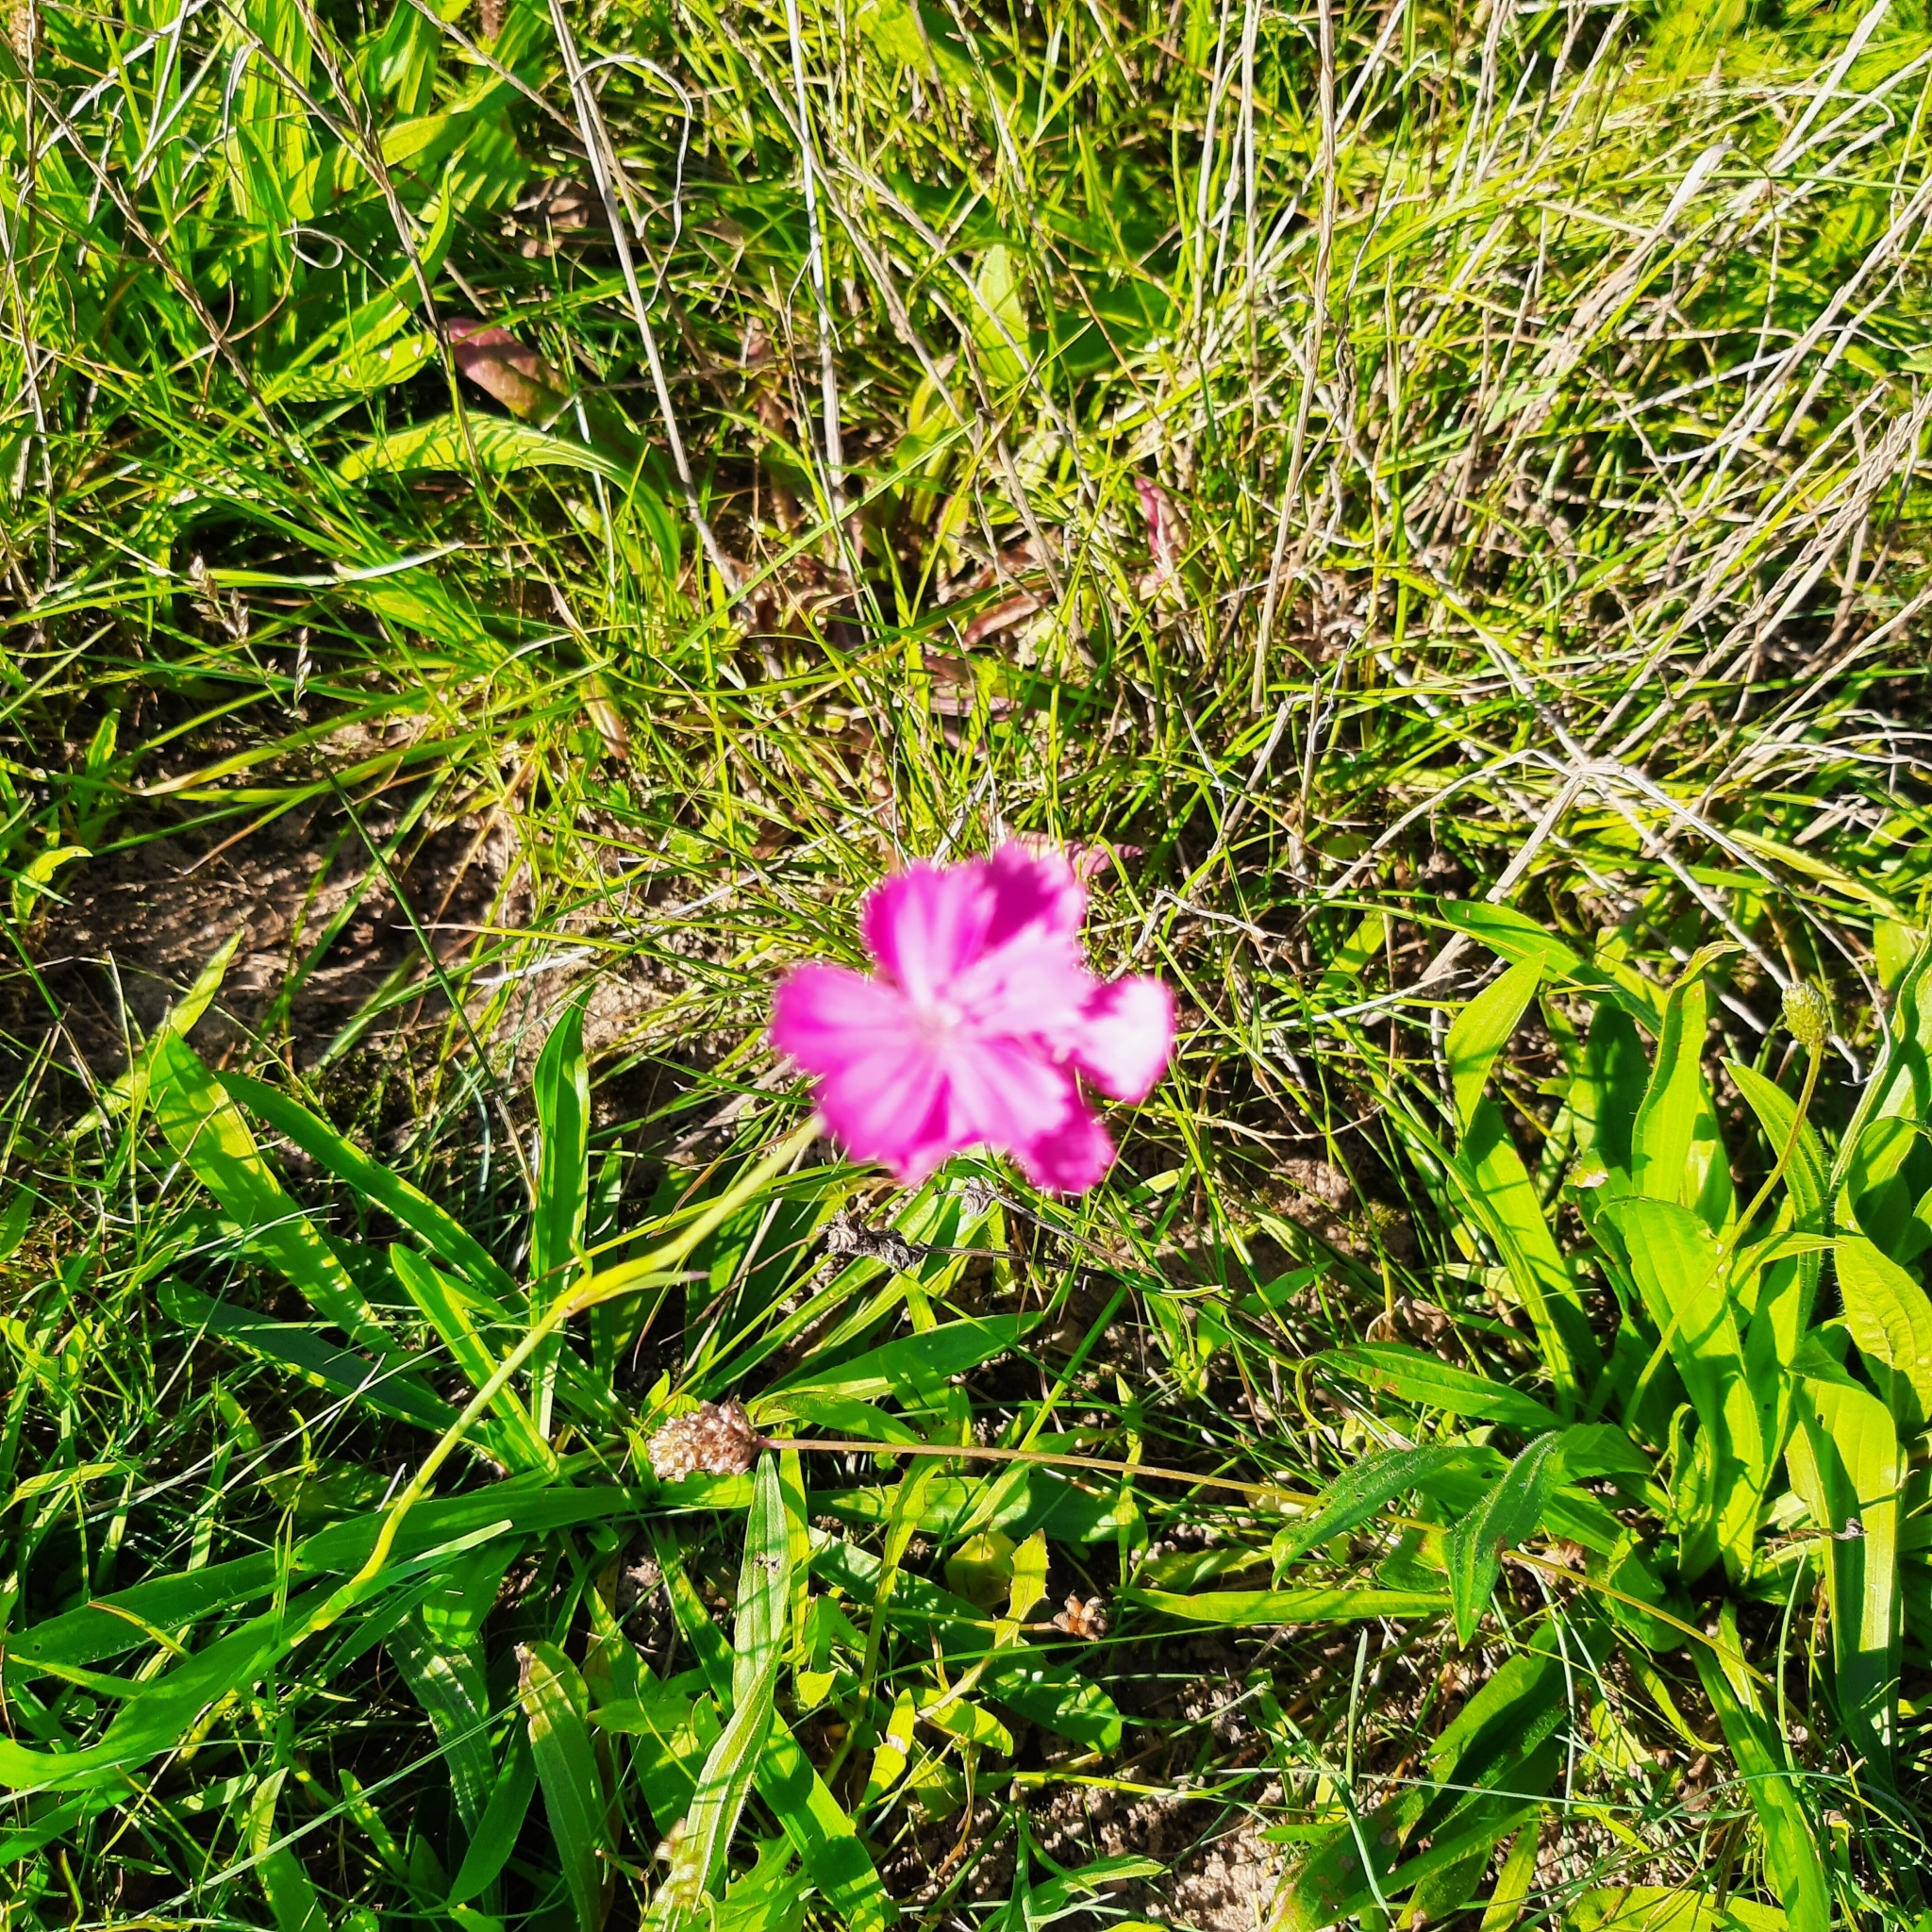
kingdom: Plantae
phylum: Tracheophyta
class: Magnoliopsida
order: Caryophyllales
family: Caryophyllaceae
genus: Dianthus
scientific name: Dianthus carthusianorum
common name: Carthusian pink
